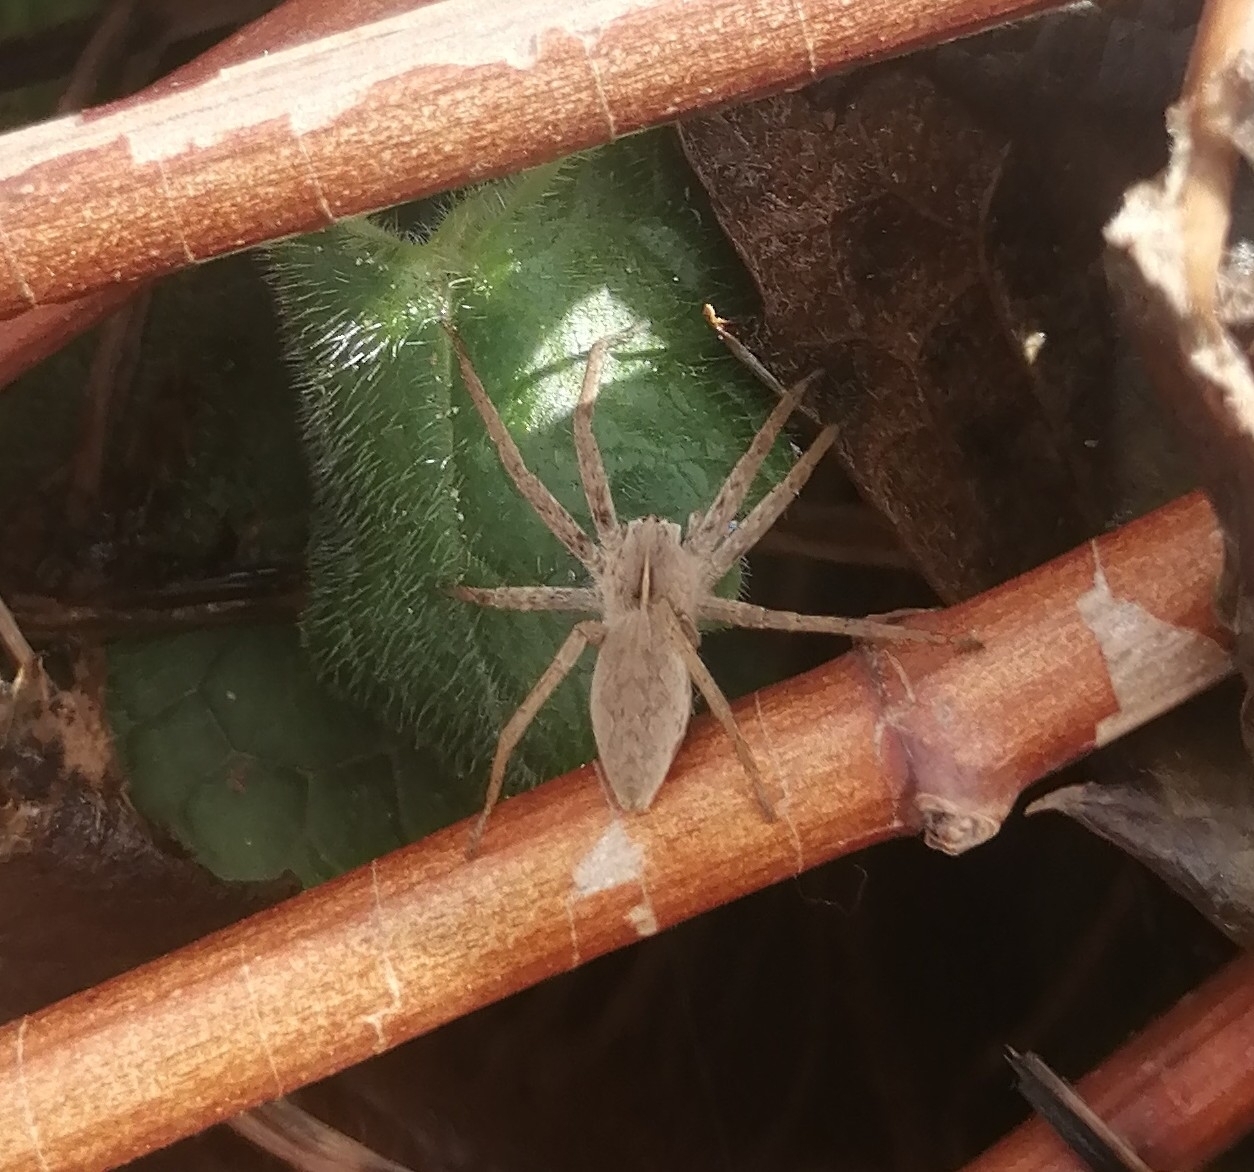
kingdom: Animalia
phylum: Arthropoda
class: Arachnida
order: Araneae
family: Pisauridae
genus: Pisaura
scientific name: Pisaura
